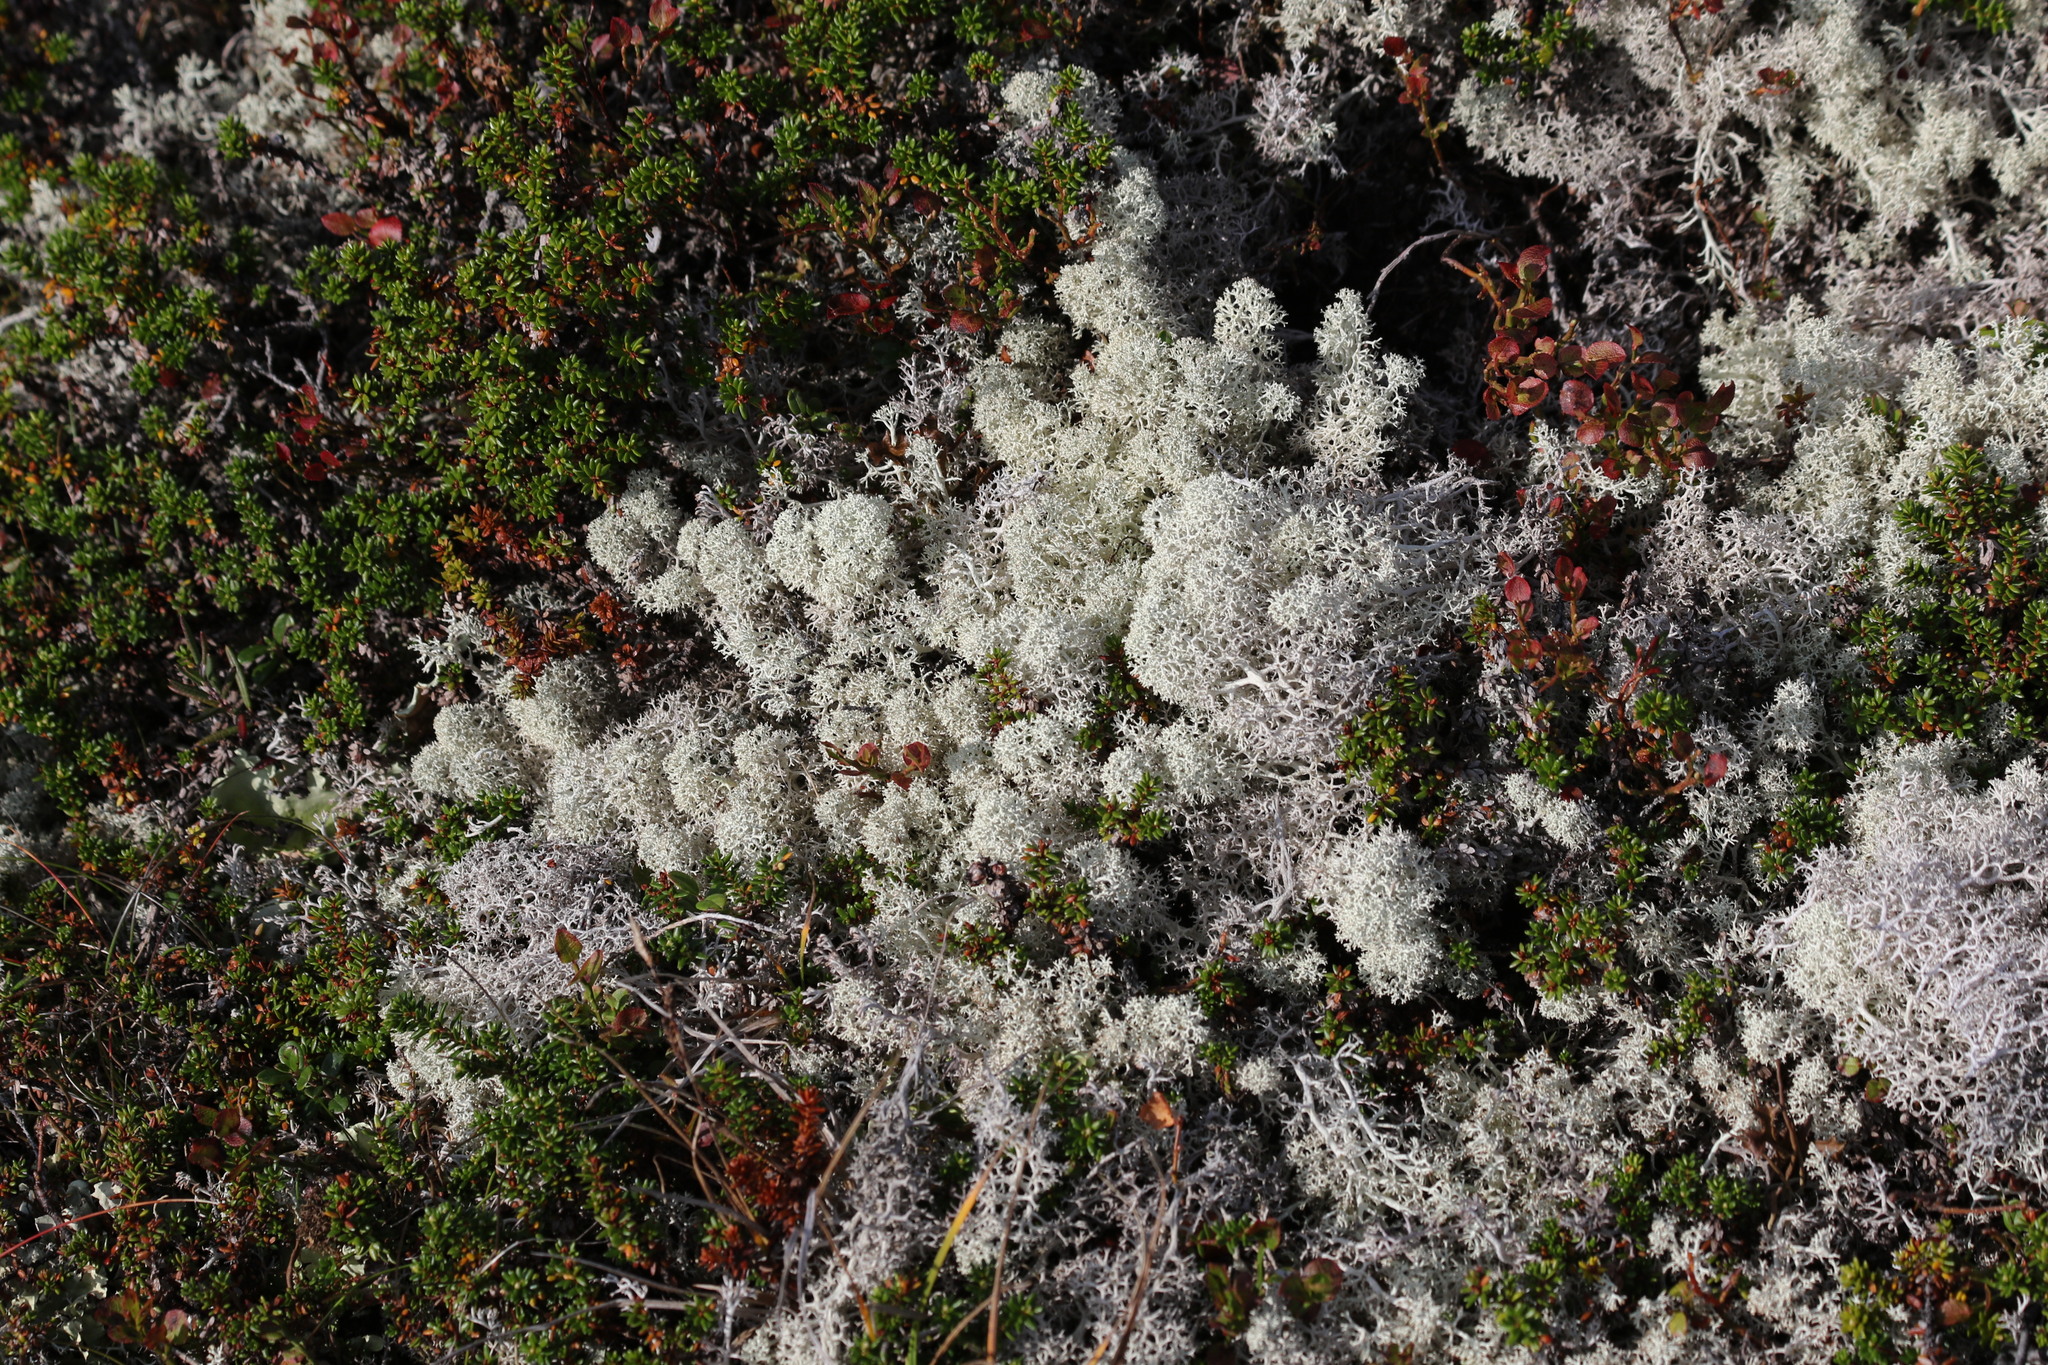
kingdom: Fungi
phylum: Ascomycota
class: Lecanoromycetes
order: Lecanorales
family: Cladoniaceae
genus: Cladonia
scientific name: Cladonia stellaris
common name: Star-tipped reindeer lichen
